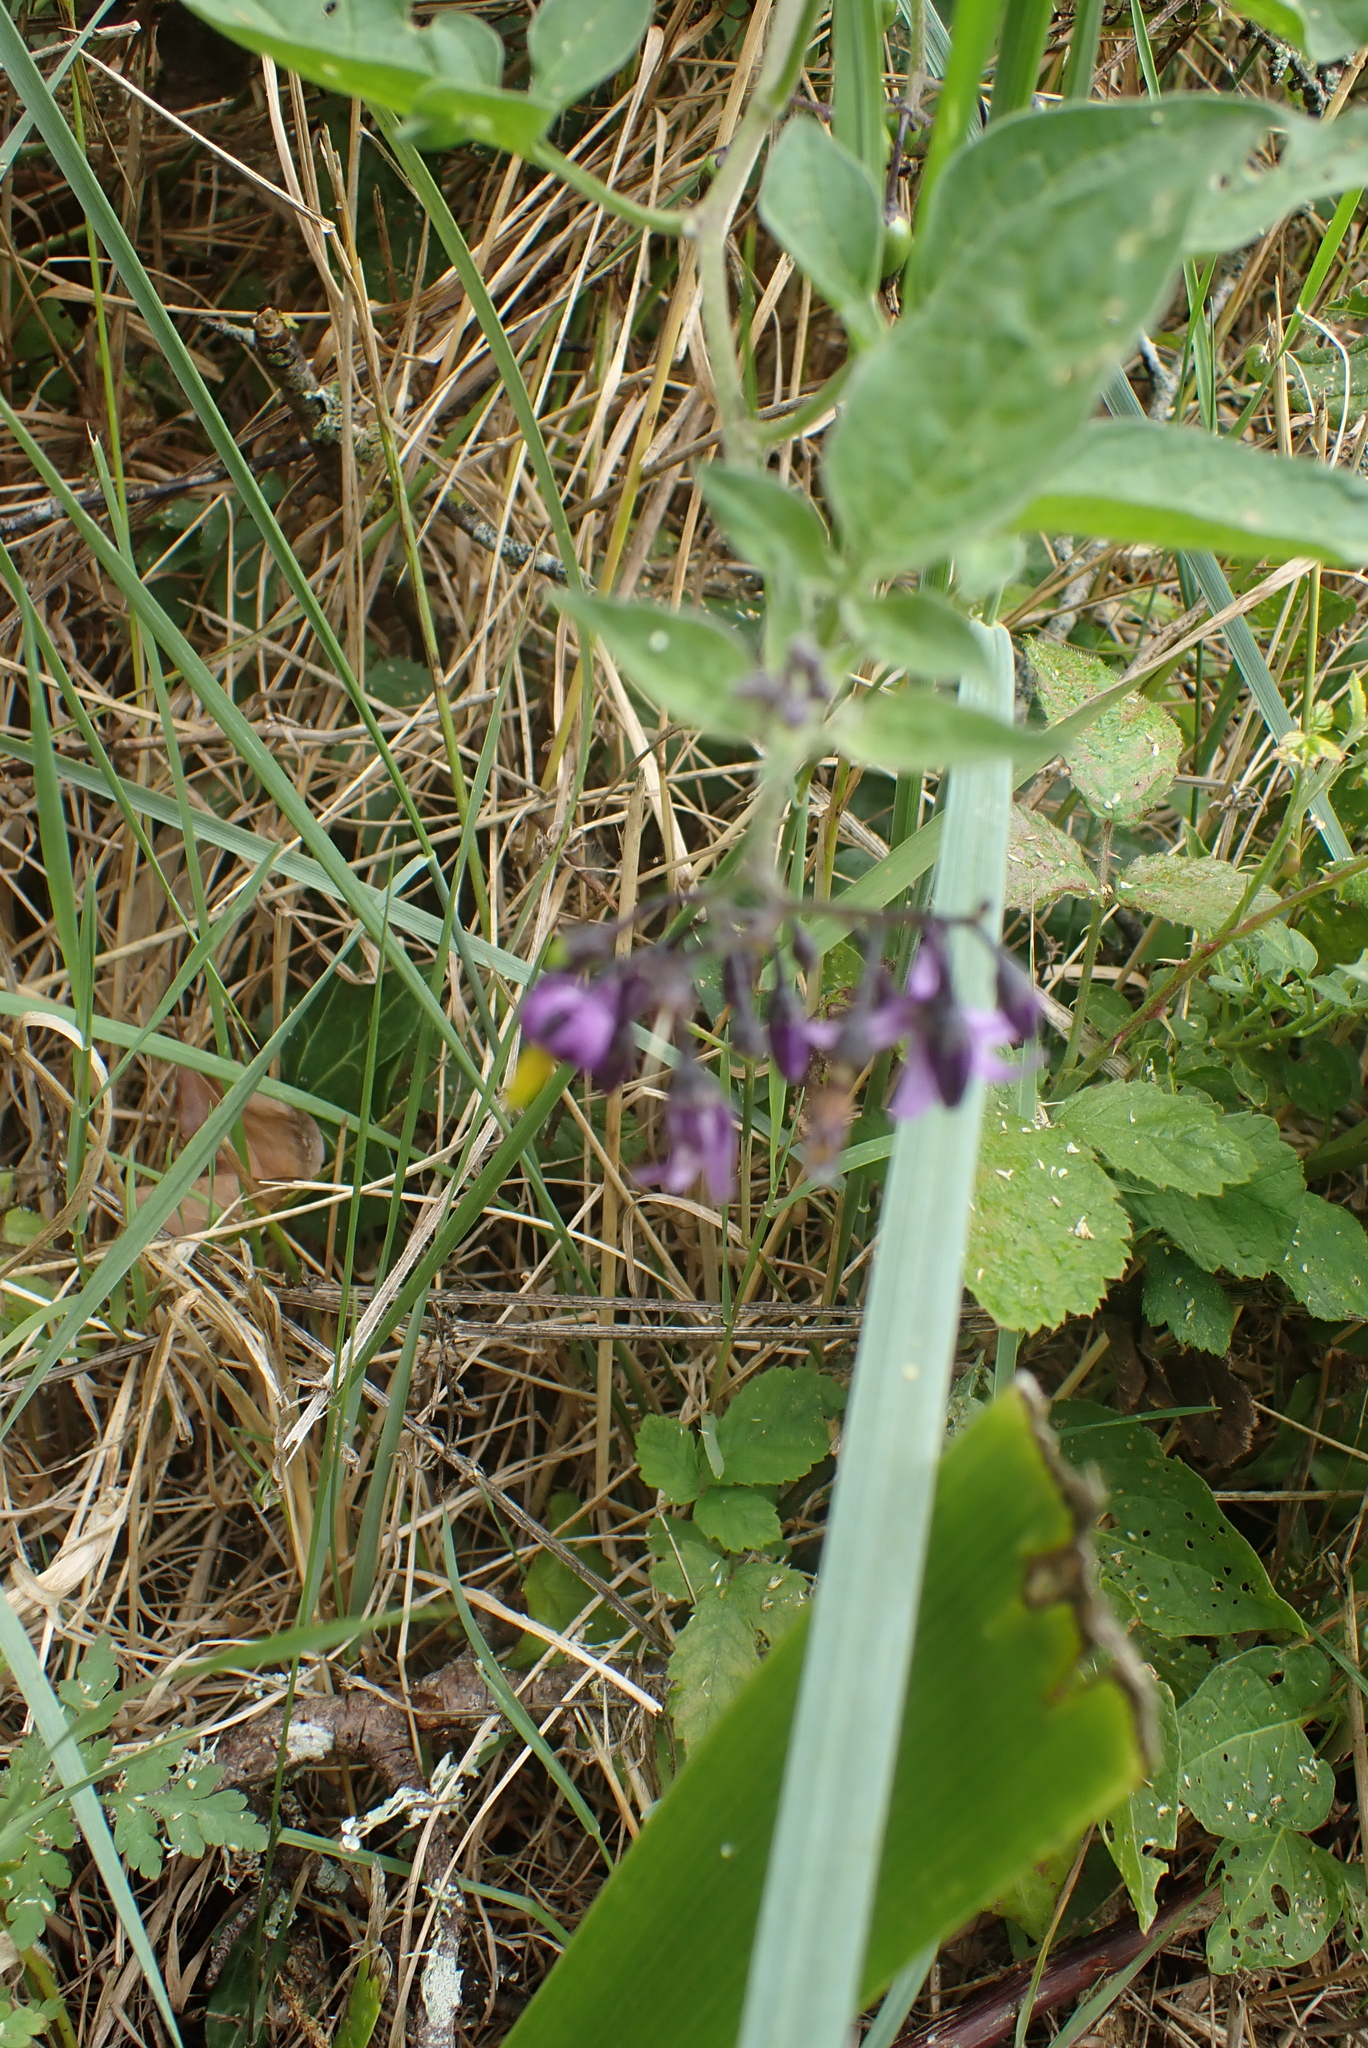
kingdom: Plantae
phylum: Tracheophyta
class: Magnoliopsida
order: Solanales
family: Solanaceae
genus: Solanum
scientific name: Solanum dulcamara
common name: Climbing nightshade
